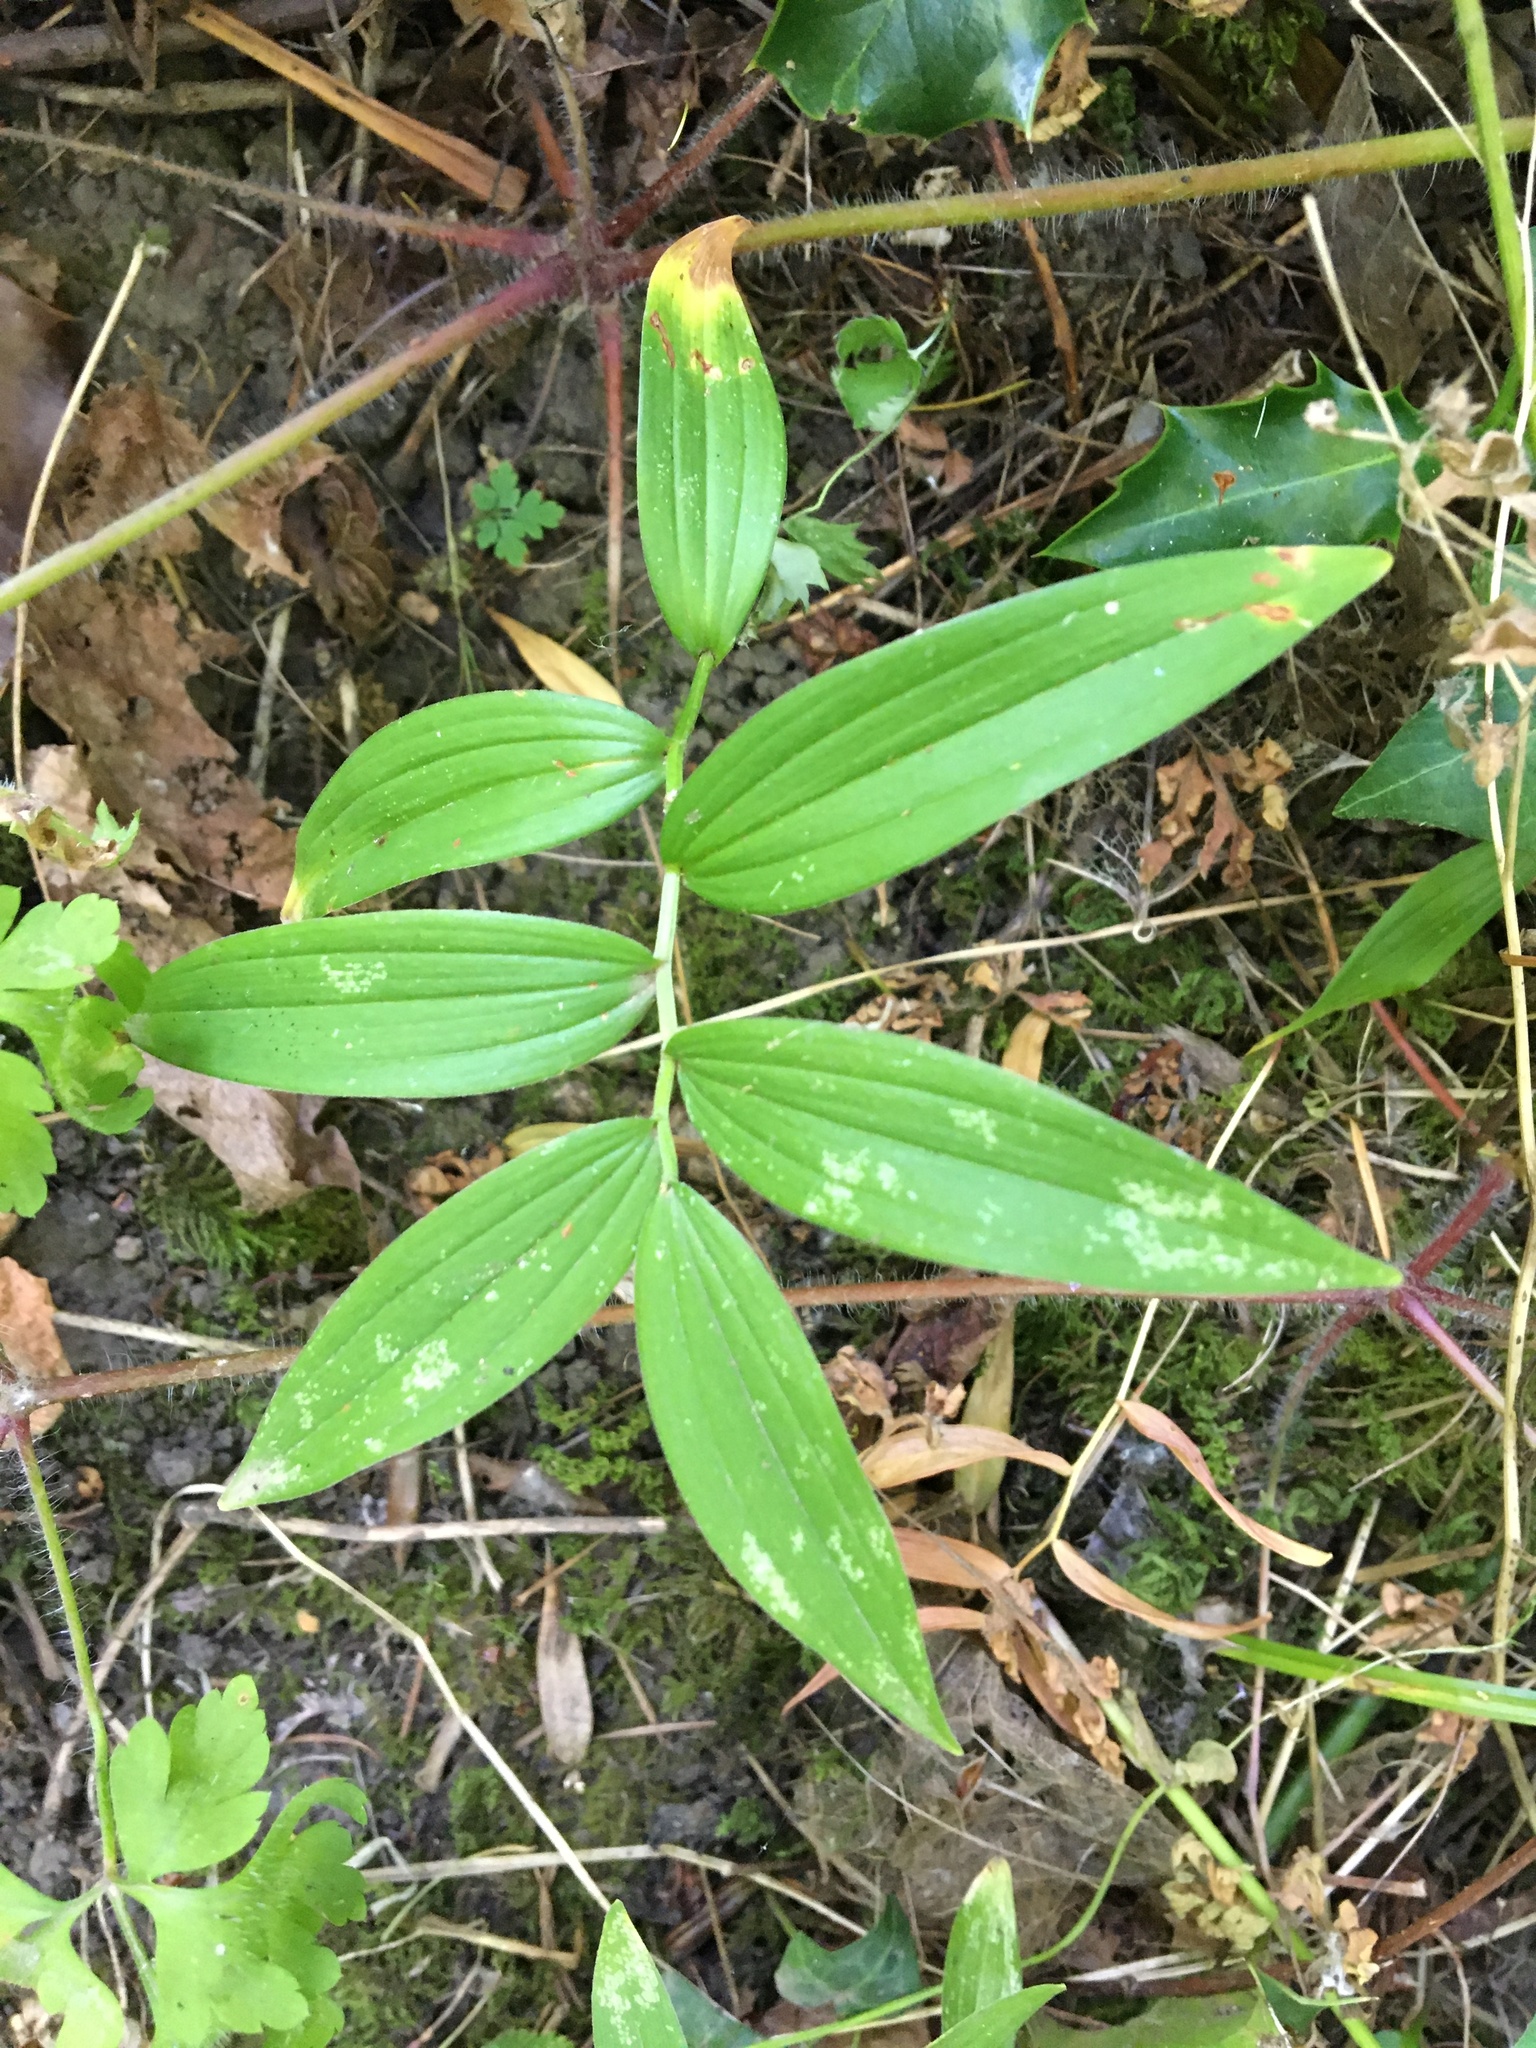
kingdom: Plantae
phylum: Tracheophyta
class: Liliopsida
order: Asparagales
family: Asparagaceae
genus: Maianthemum
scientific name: Maianthemum stellatum
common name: Little false solomon's seal
